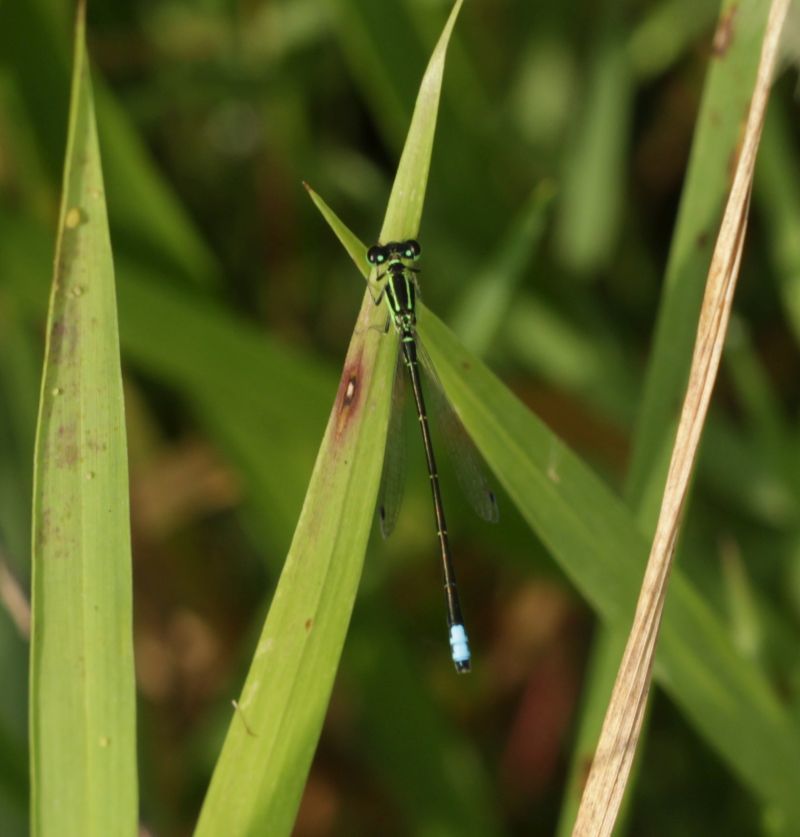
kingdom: Animalia
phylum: Arthropoda
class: Insecta
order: Odonata
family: Coenagrionidae
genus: Ischnura
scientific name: Ischnura verticalis
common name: Eastern forktail
